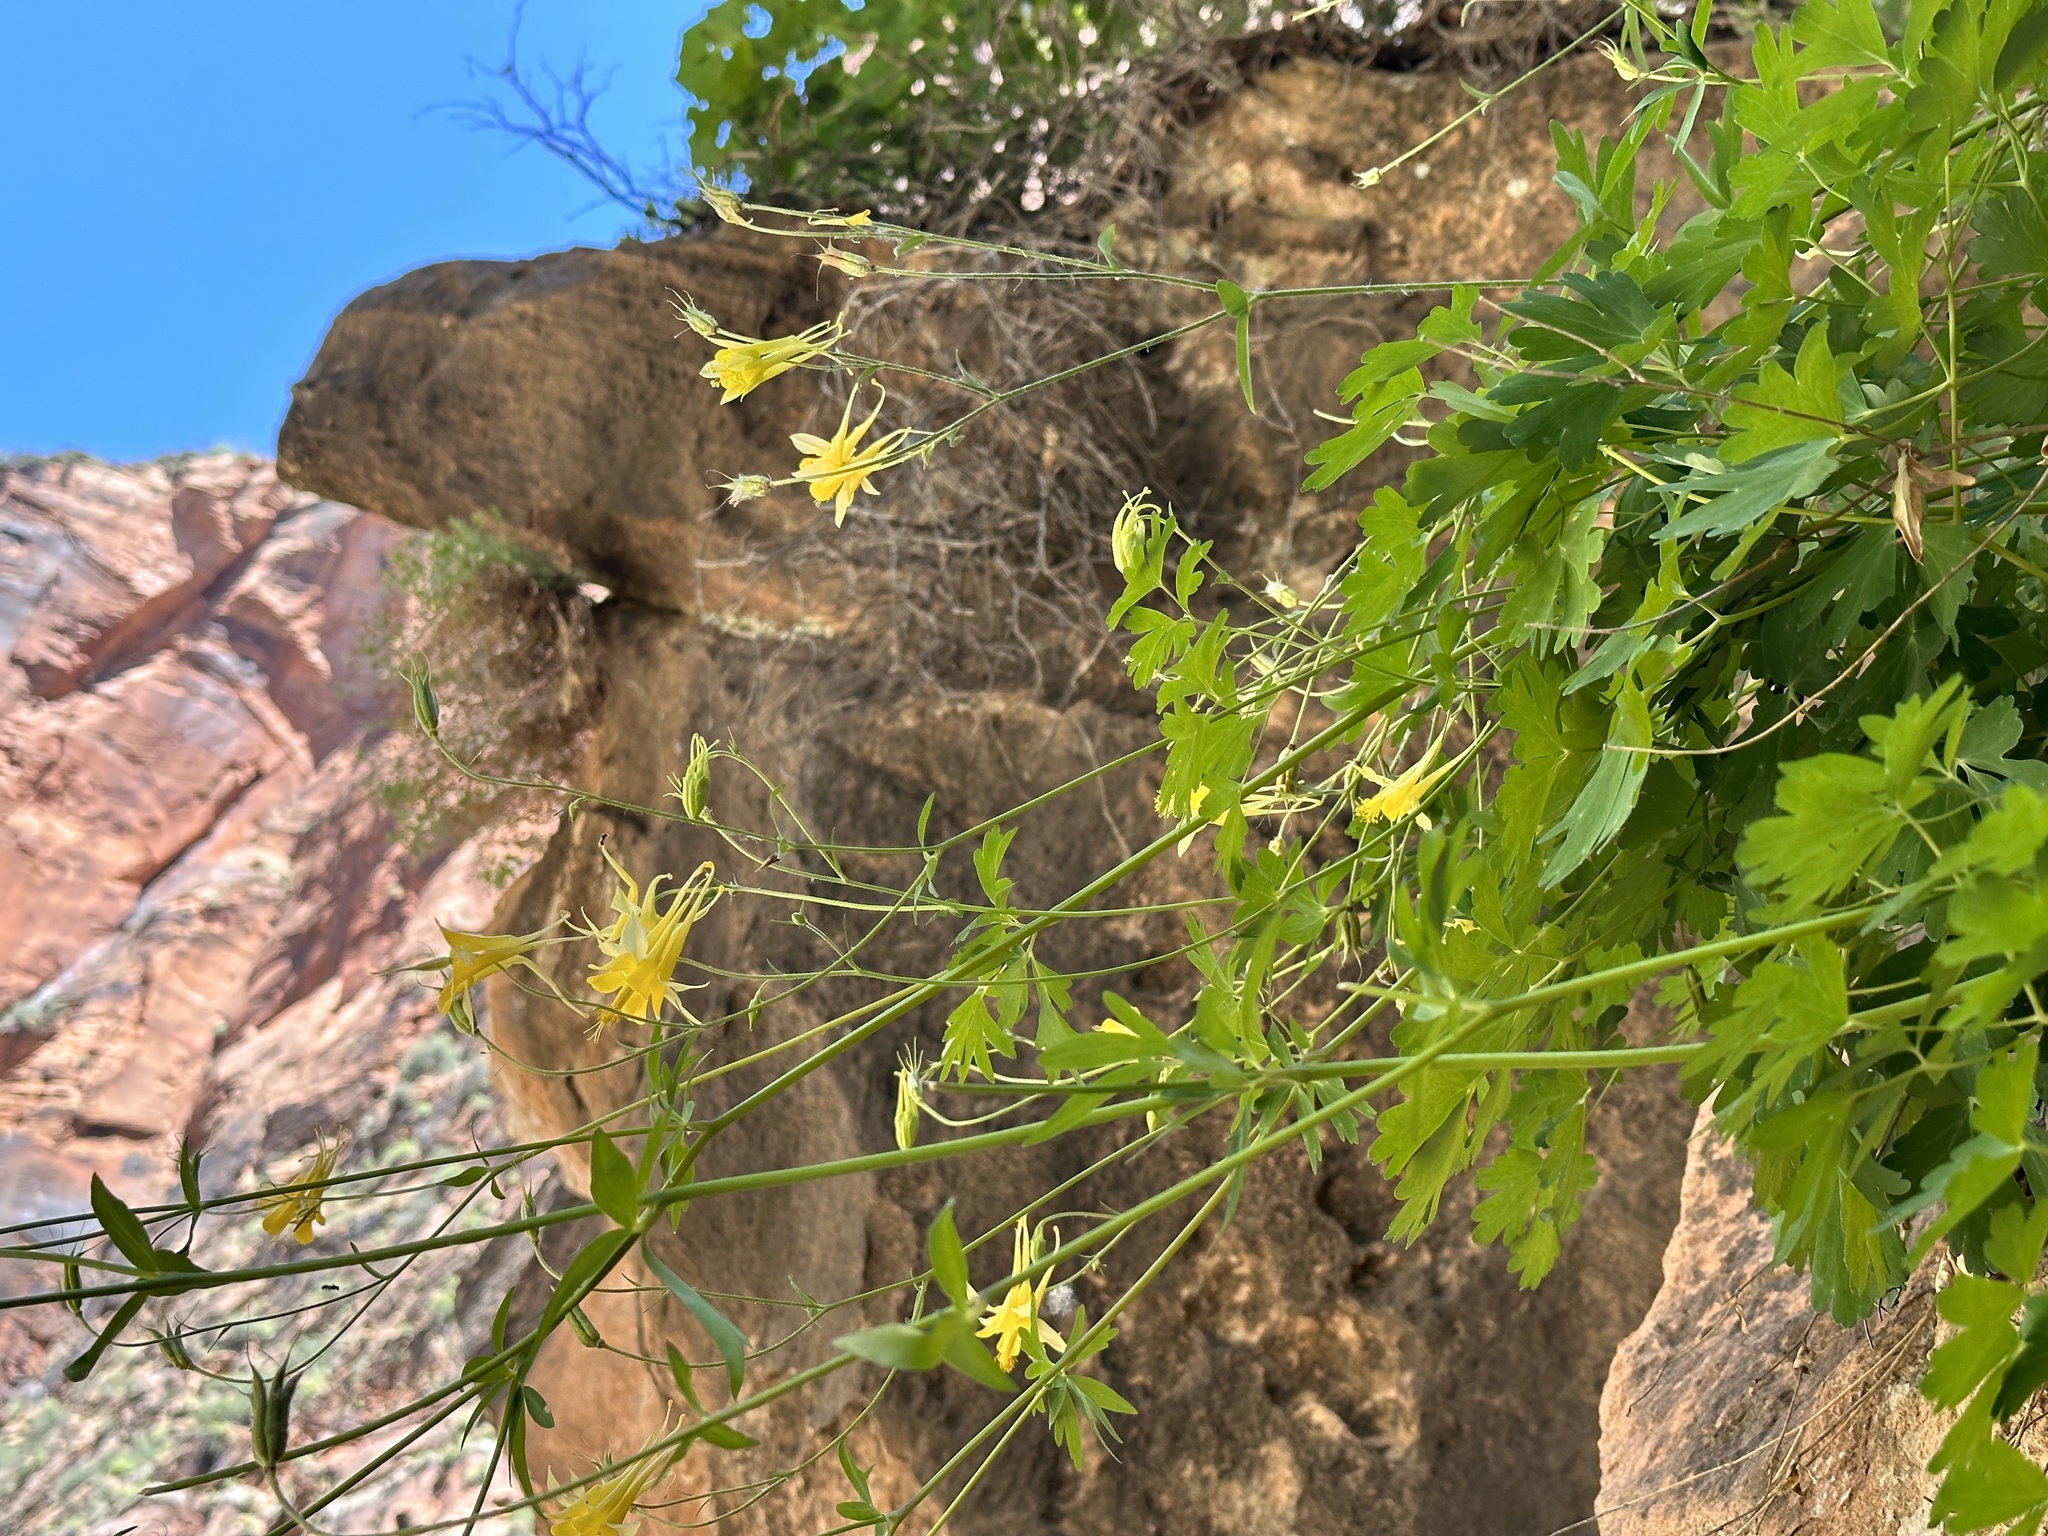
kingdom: Plantae
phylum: Tracheophyta
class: Magnoliopsida
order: Ranunculales
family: Ranunculaceae
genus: Aquilegia
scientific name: Aquilegia chrysantha
